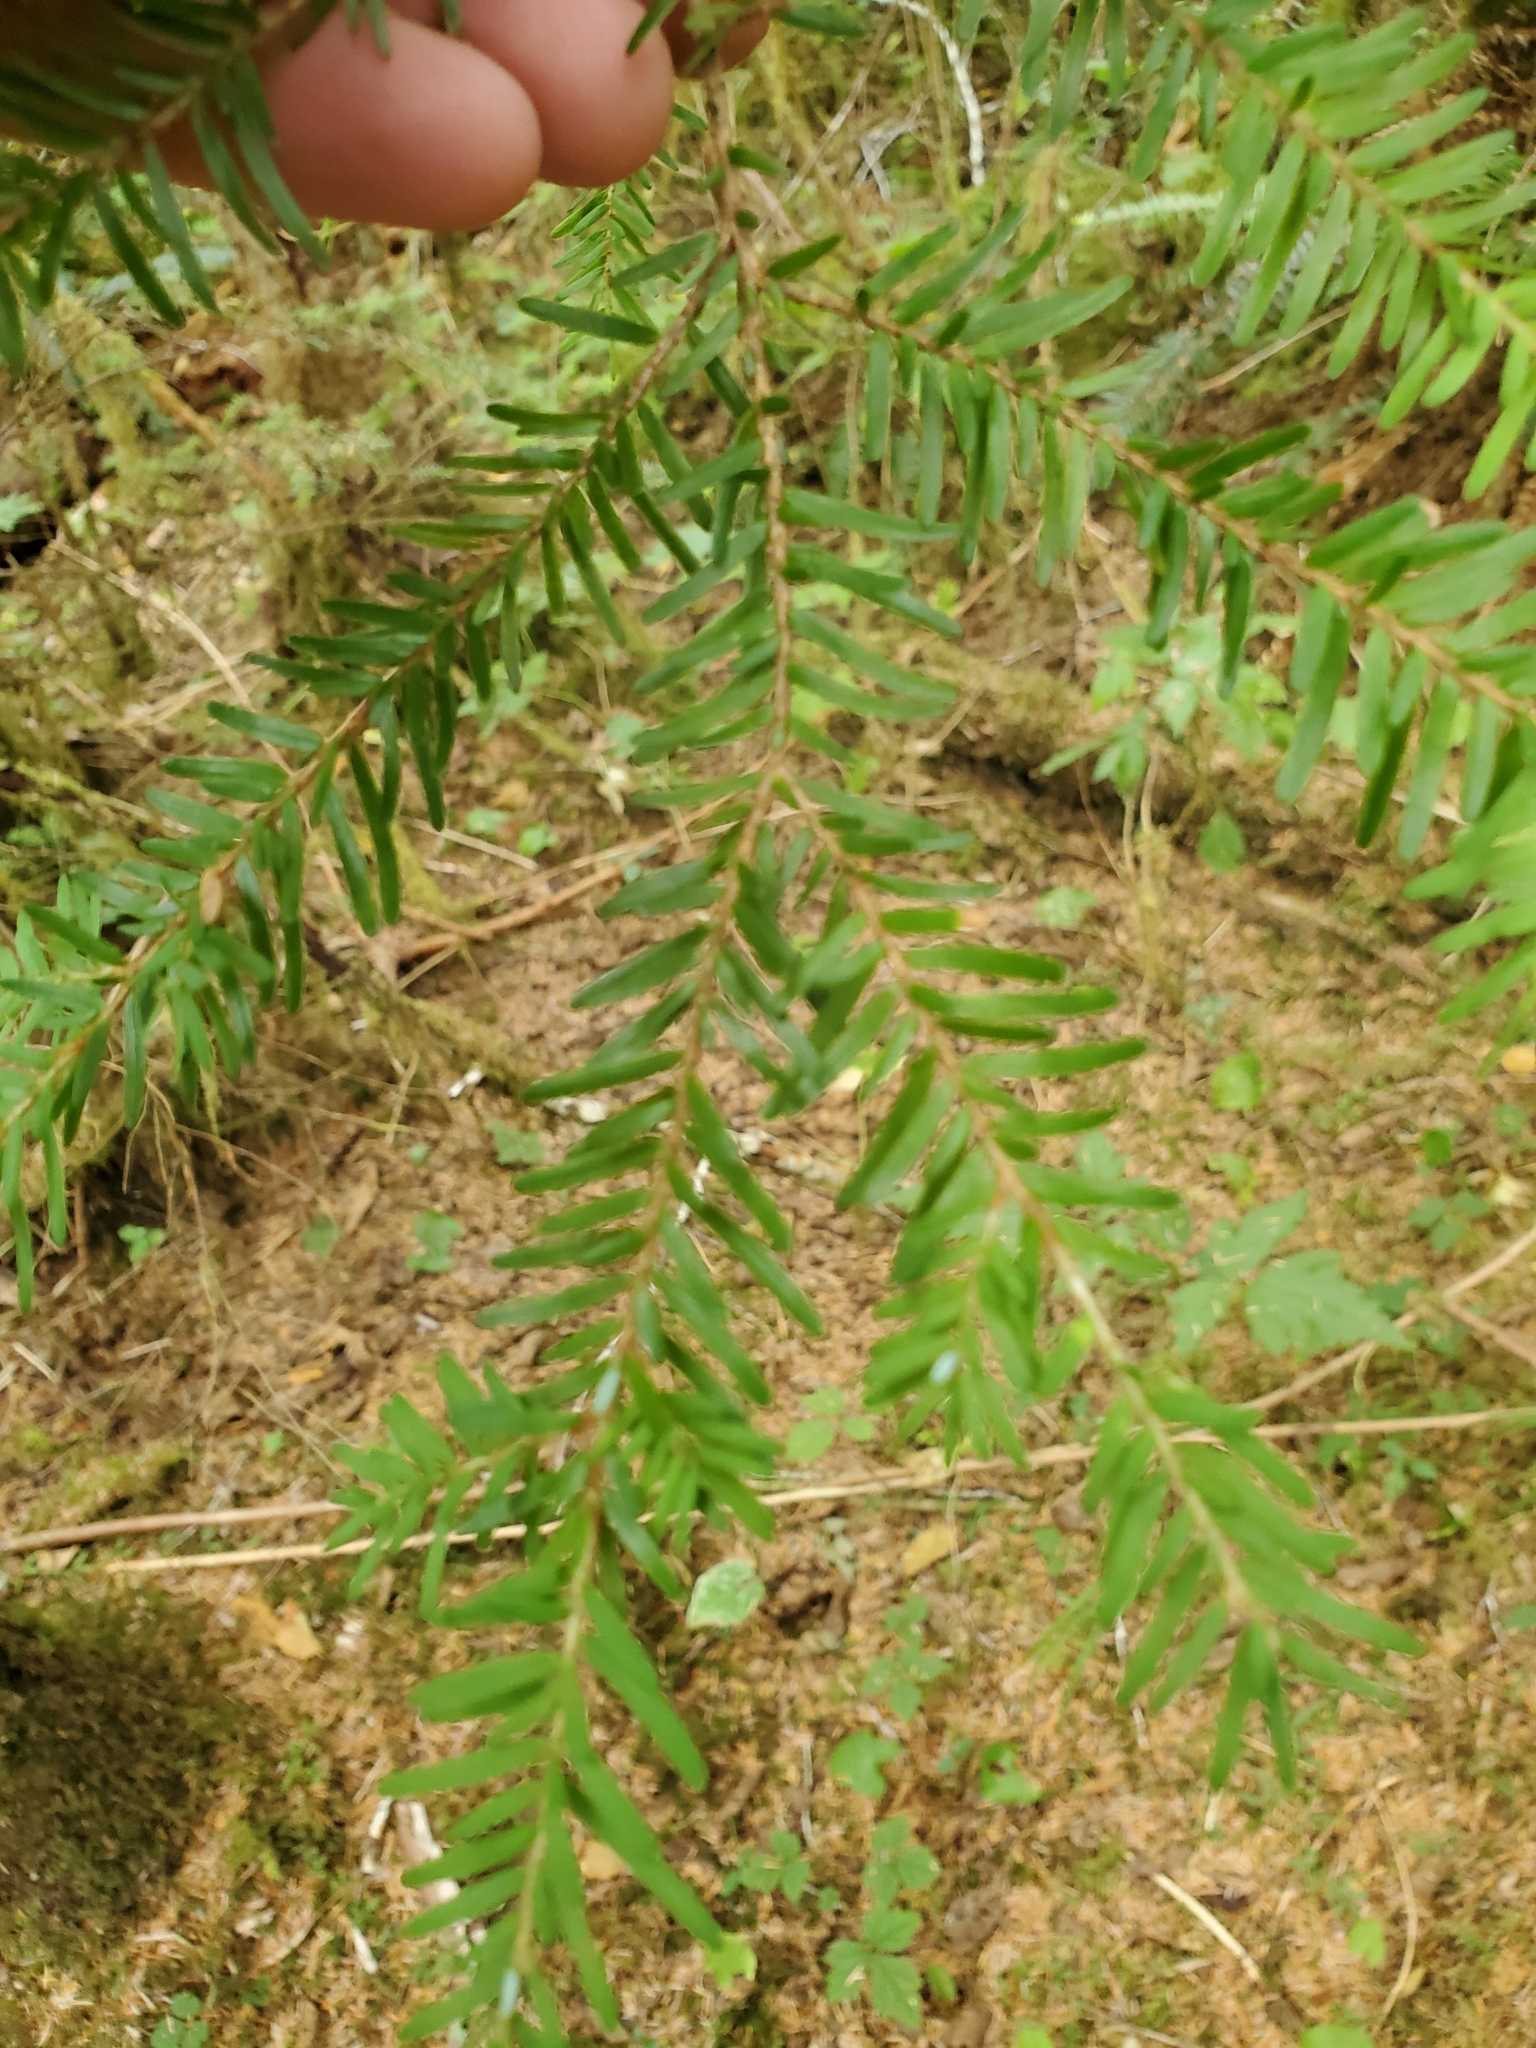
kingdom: Plantae
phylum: Tracheophyta
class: Pinopsida
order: Pinales
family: Pinaceae
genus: Tsuga
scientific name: Tsuga heterophylla
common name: Western hemlock
